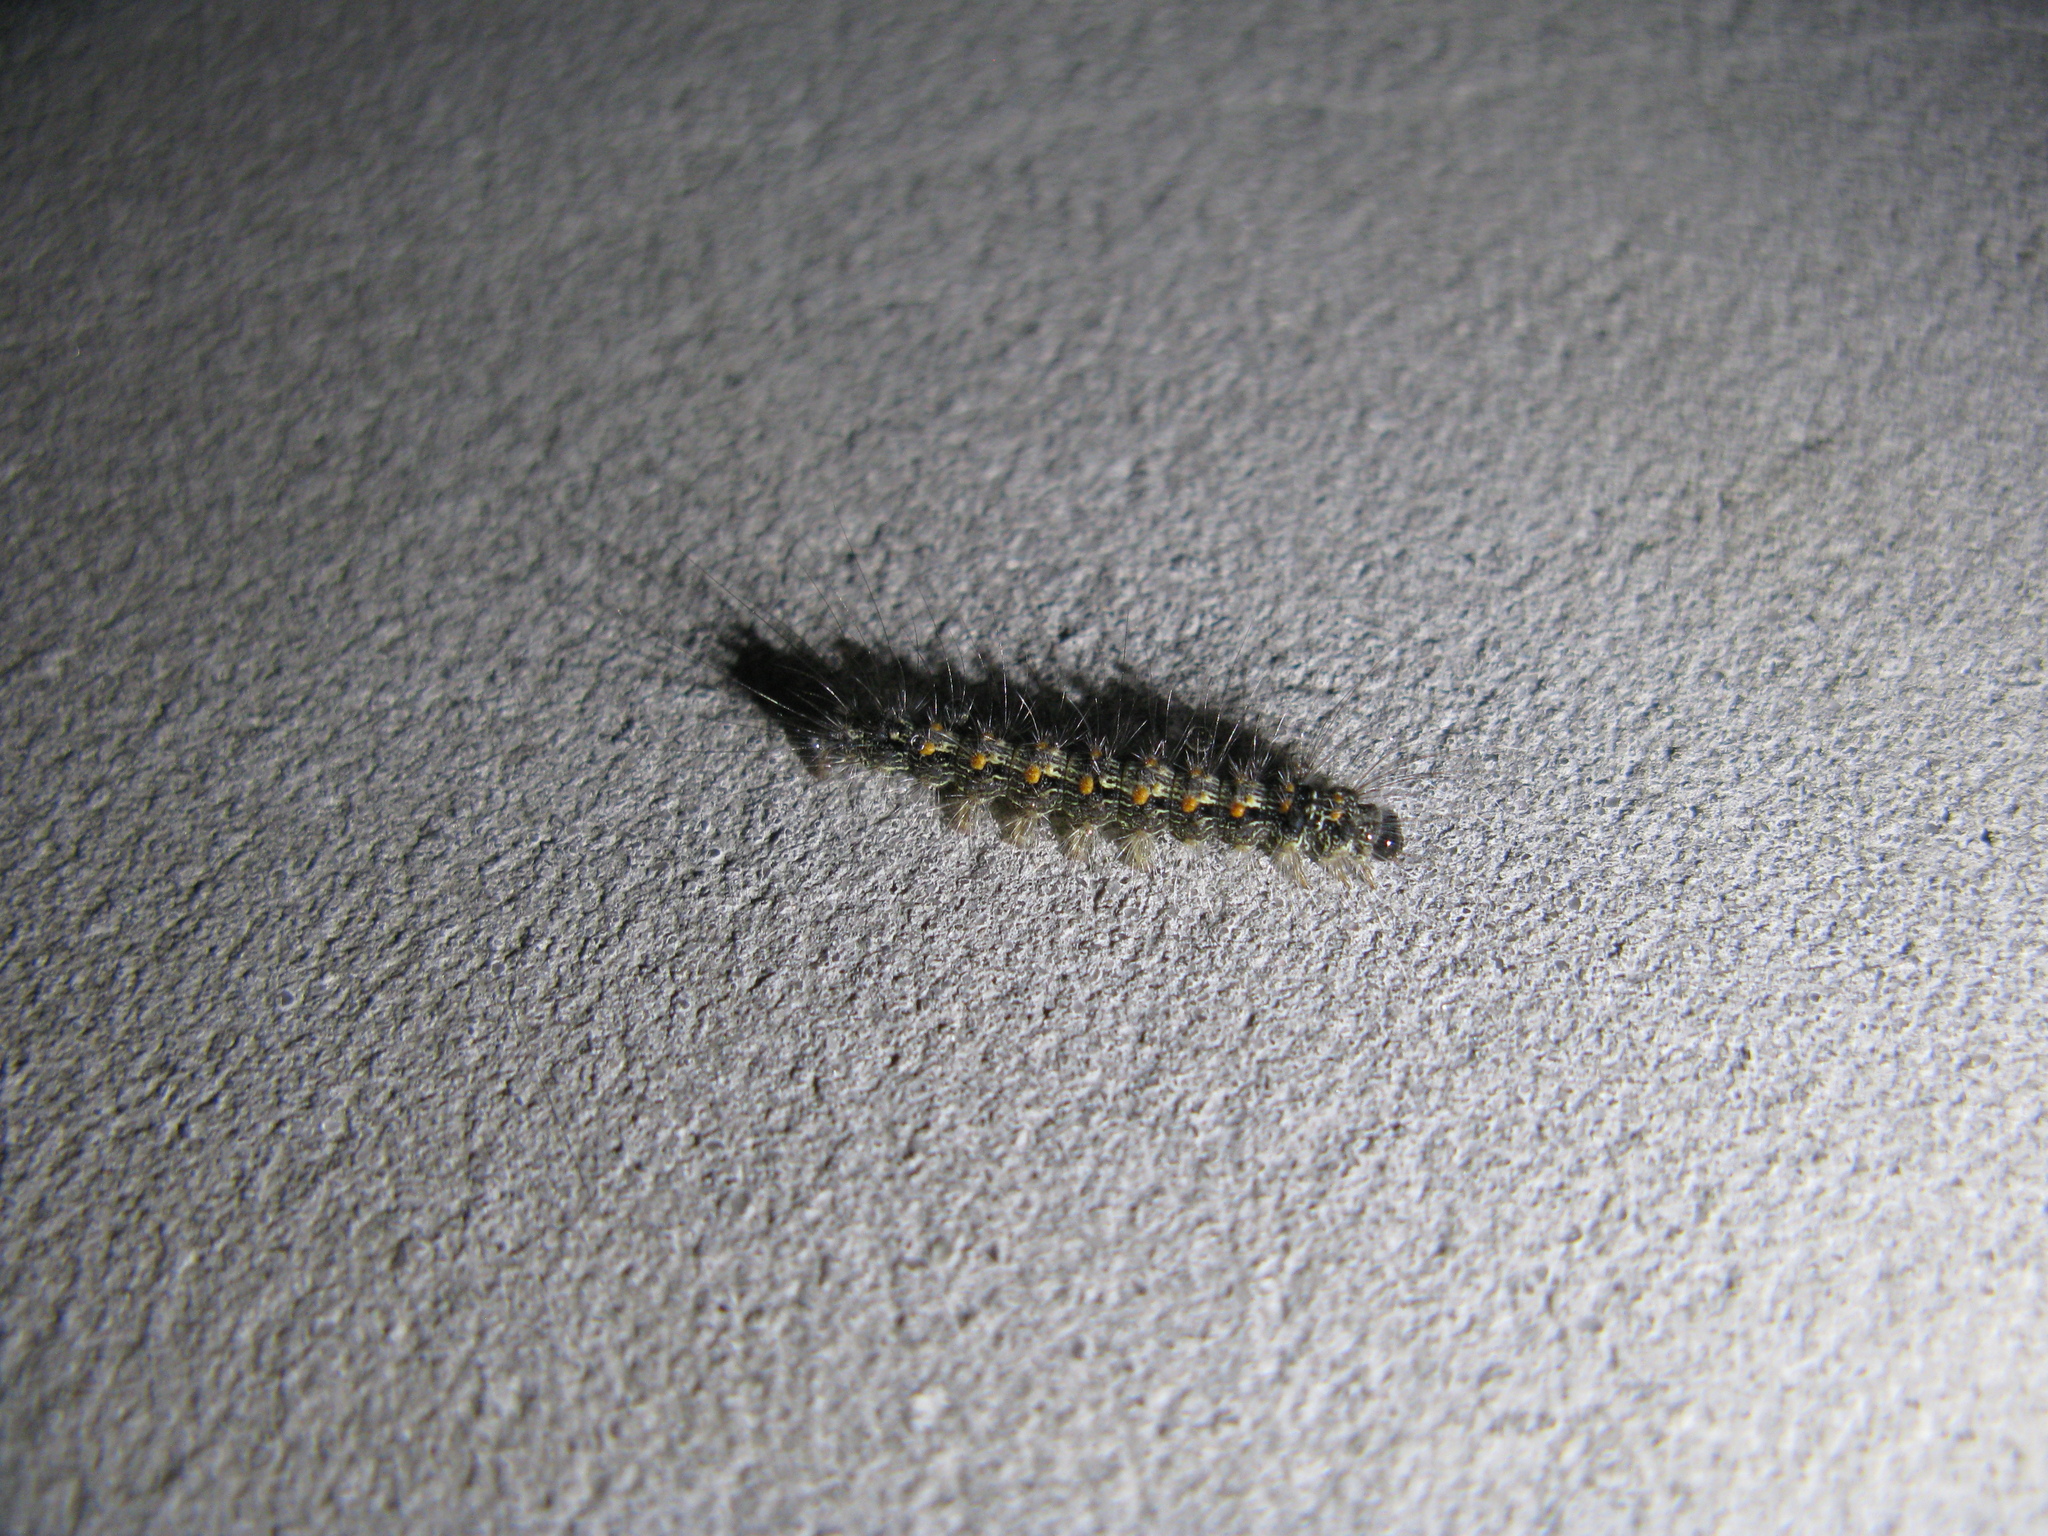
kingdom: Animalia
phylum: Arthropoda
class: Insecta
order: Lepidoptera
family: Erebidae
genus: Lithosia
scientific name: Lithosia quadra
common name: Four-spotted footman
